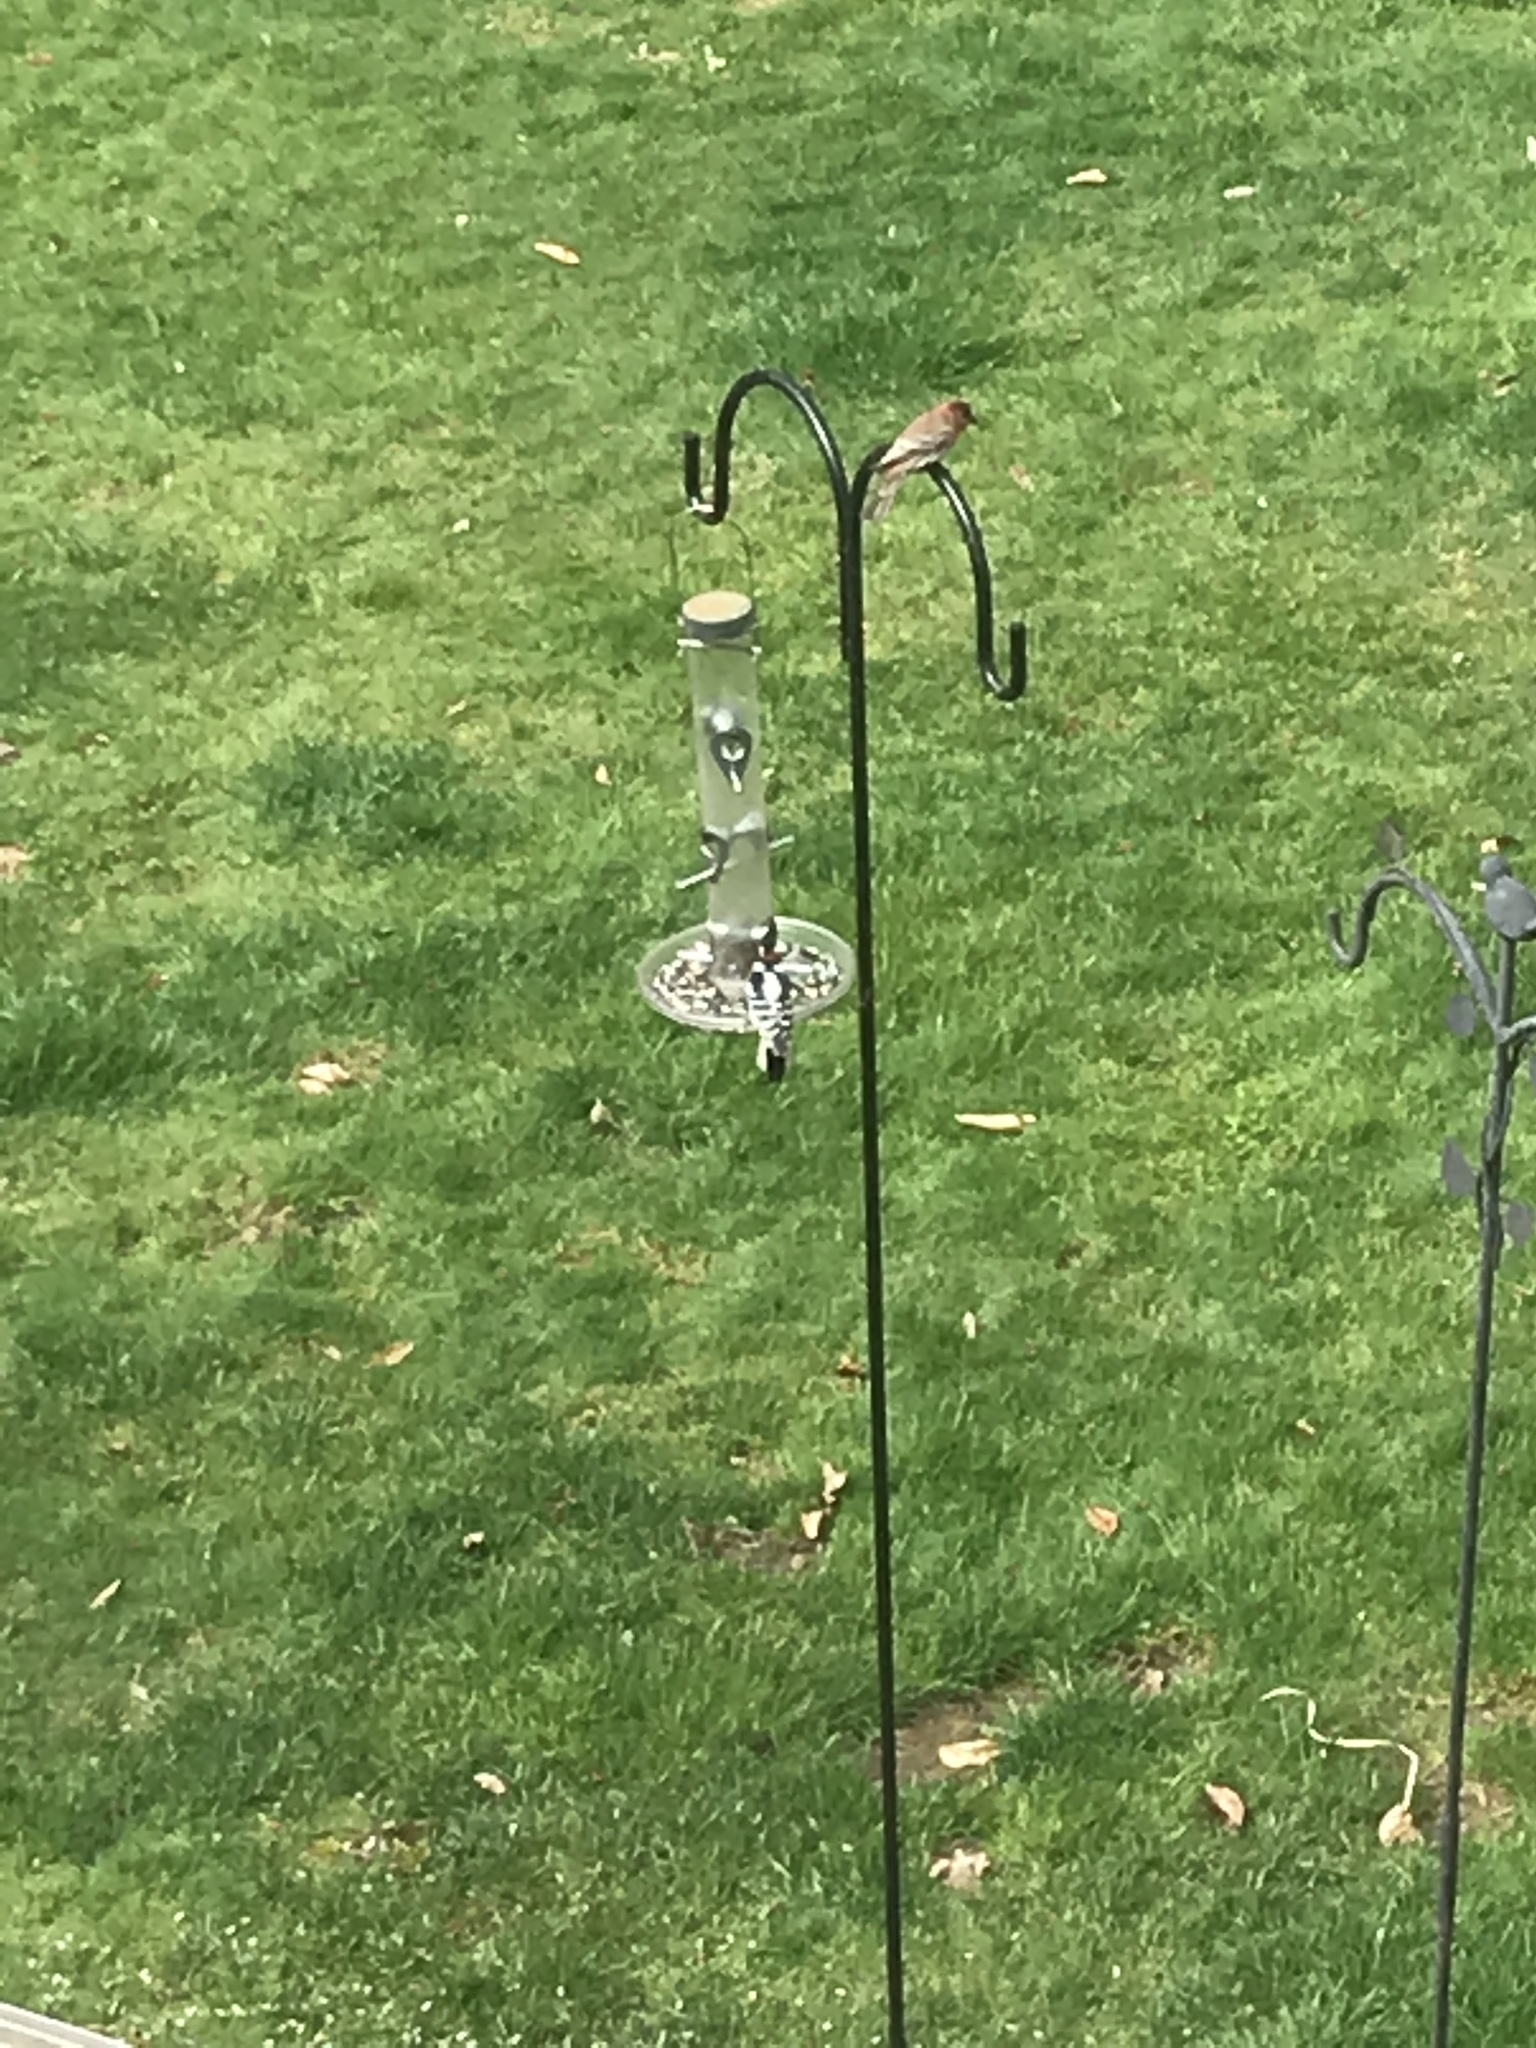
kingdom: Animalia
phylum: Chordata
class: Aves
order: Piciformes
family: Picidae
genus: Dryobates
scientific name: Dryobates pubescens
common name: Downy woodpecker
